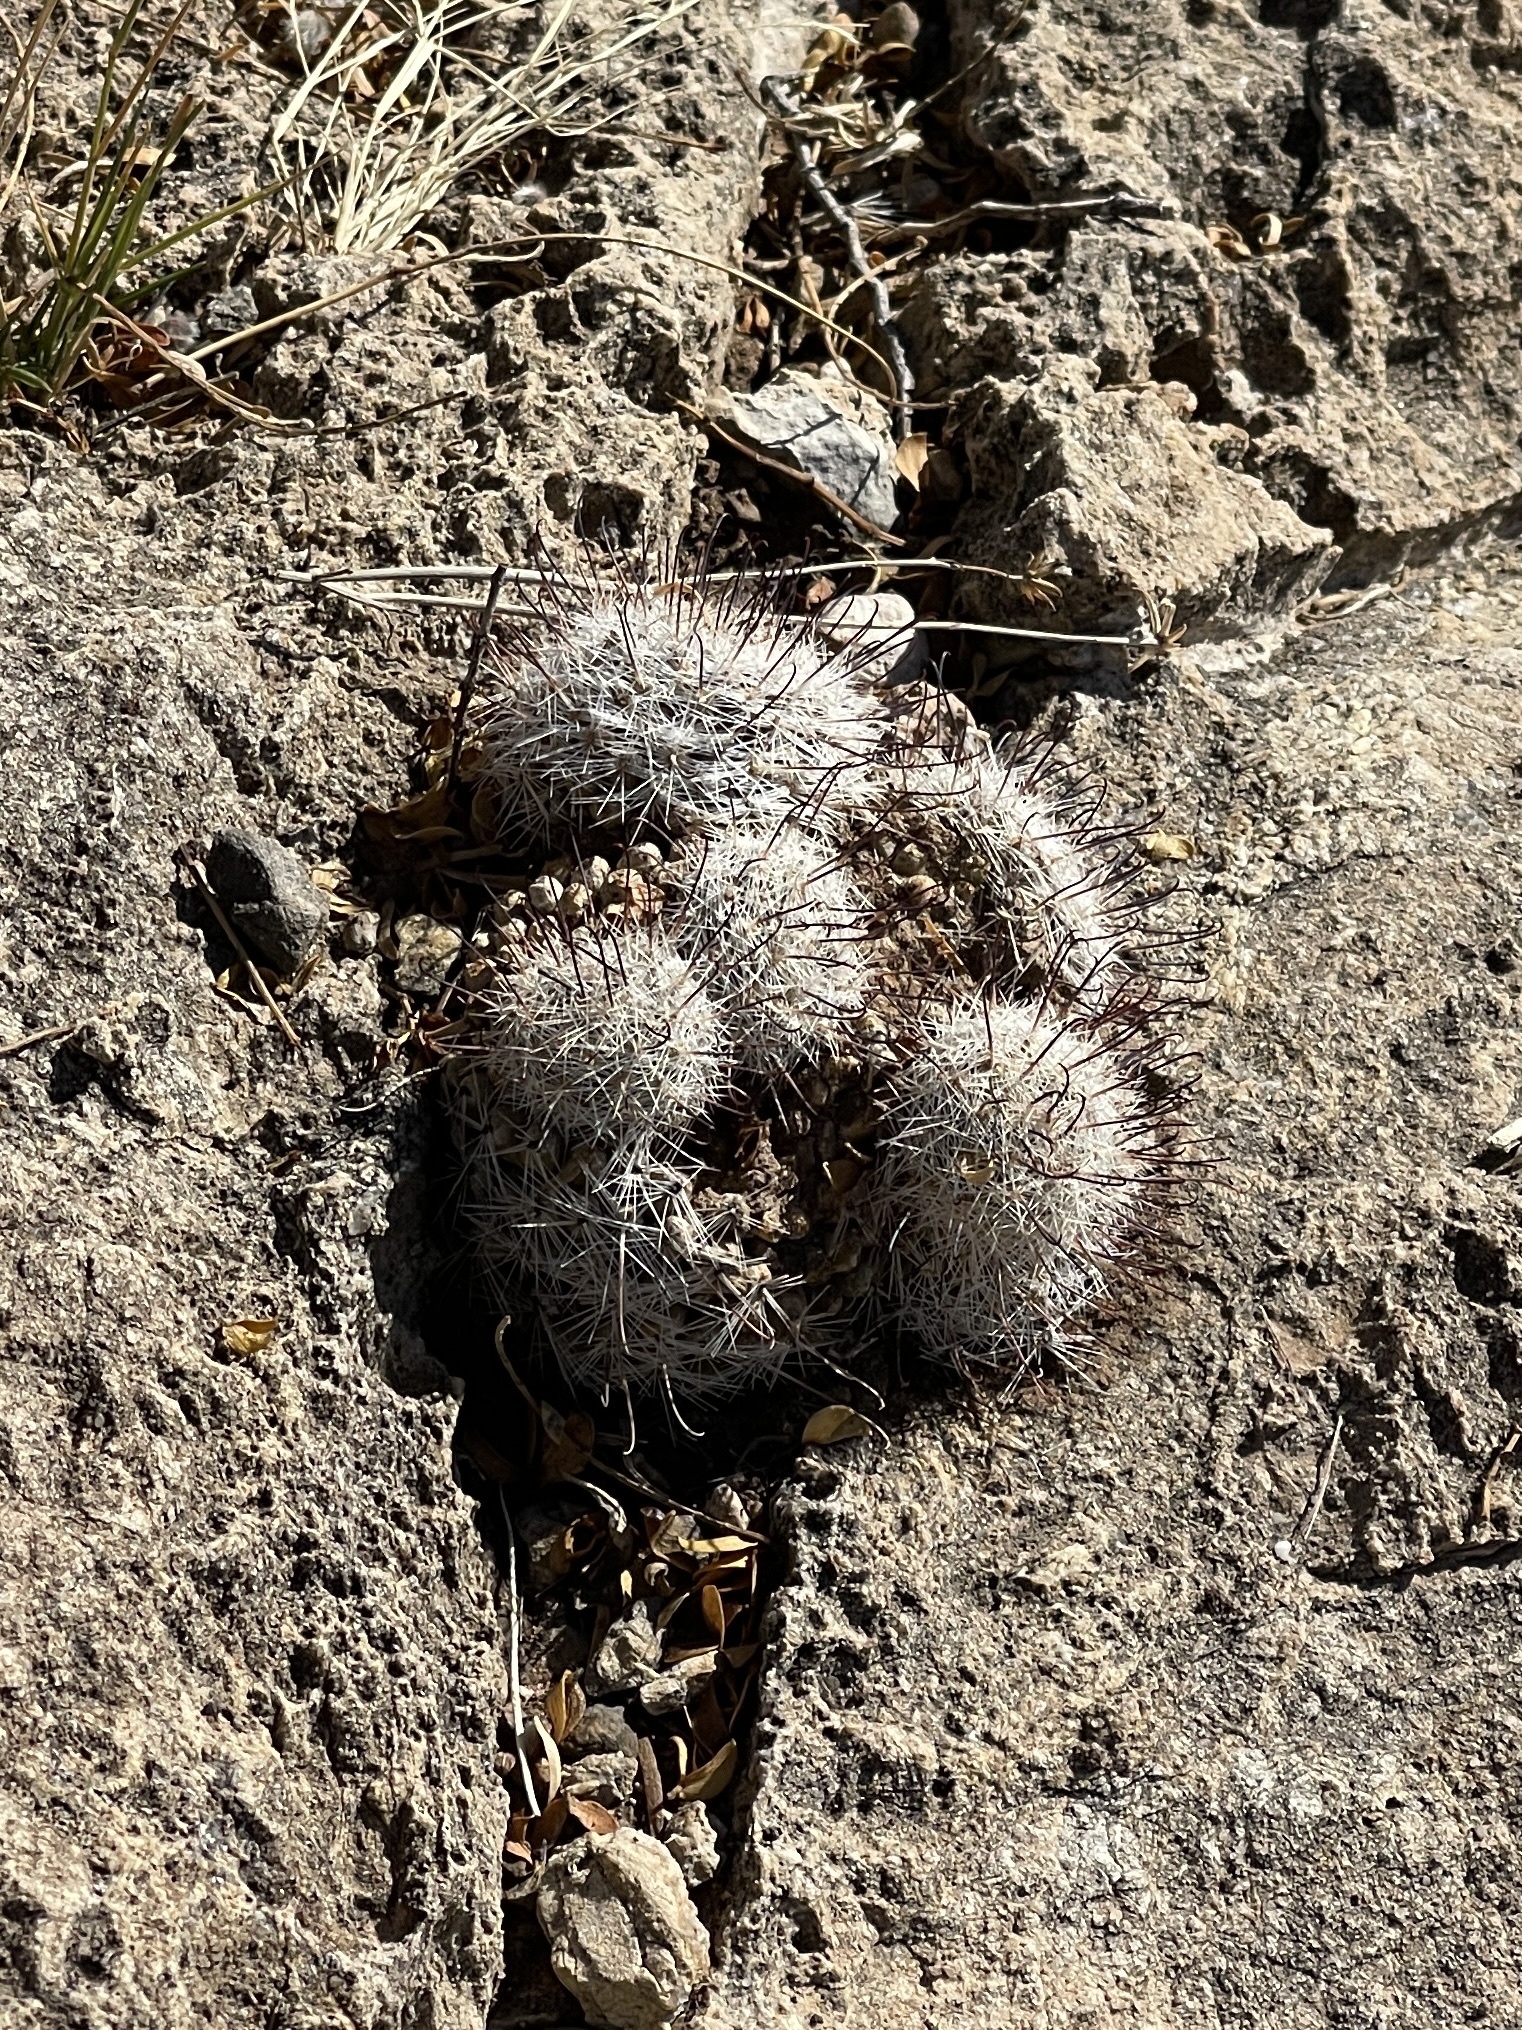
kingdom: Plantae
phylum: Tracheophyta
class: Magnoliopsida
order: Caryophyllales
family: Cactaceae
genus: Cochemiea
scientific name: Cochemiea grahamii
